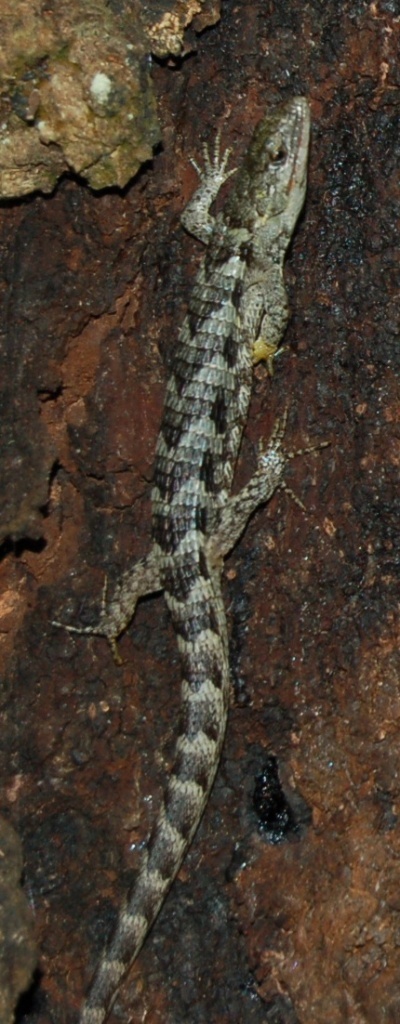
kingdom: Animalia
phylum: Chordata
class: Squamata
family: Anguidae
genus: Abronia
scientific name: Abronia lythrochila
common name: Red-lipped arboreal alligator lizard
